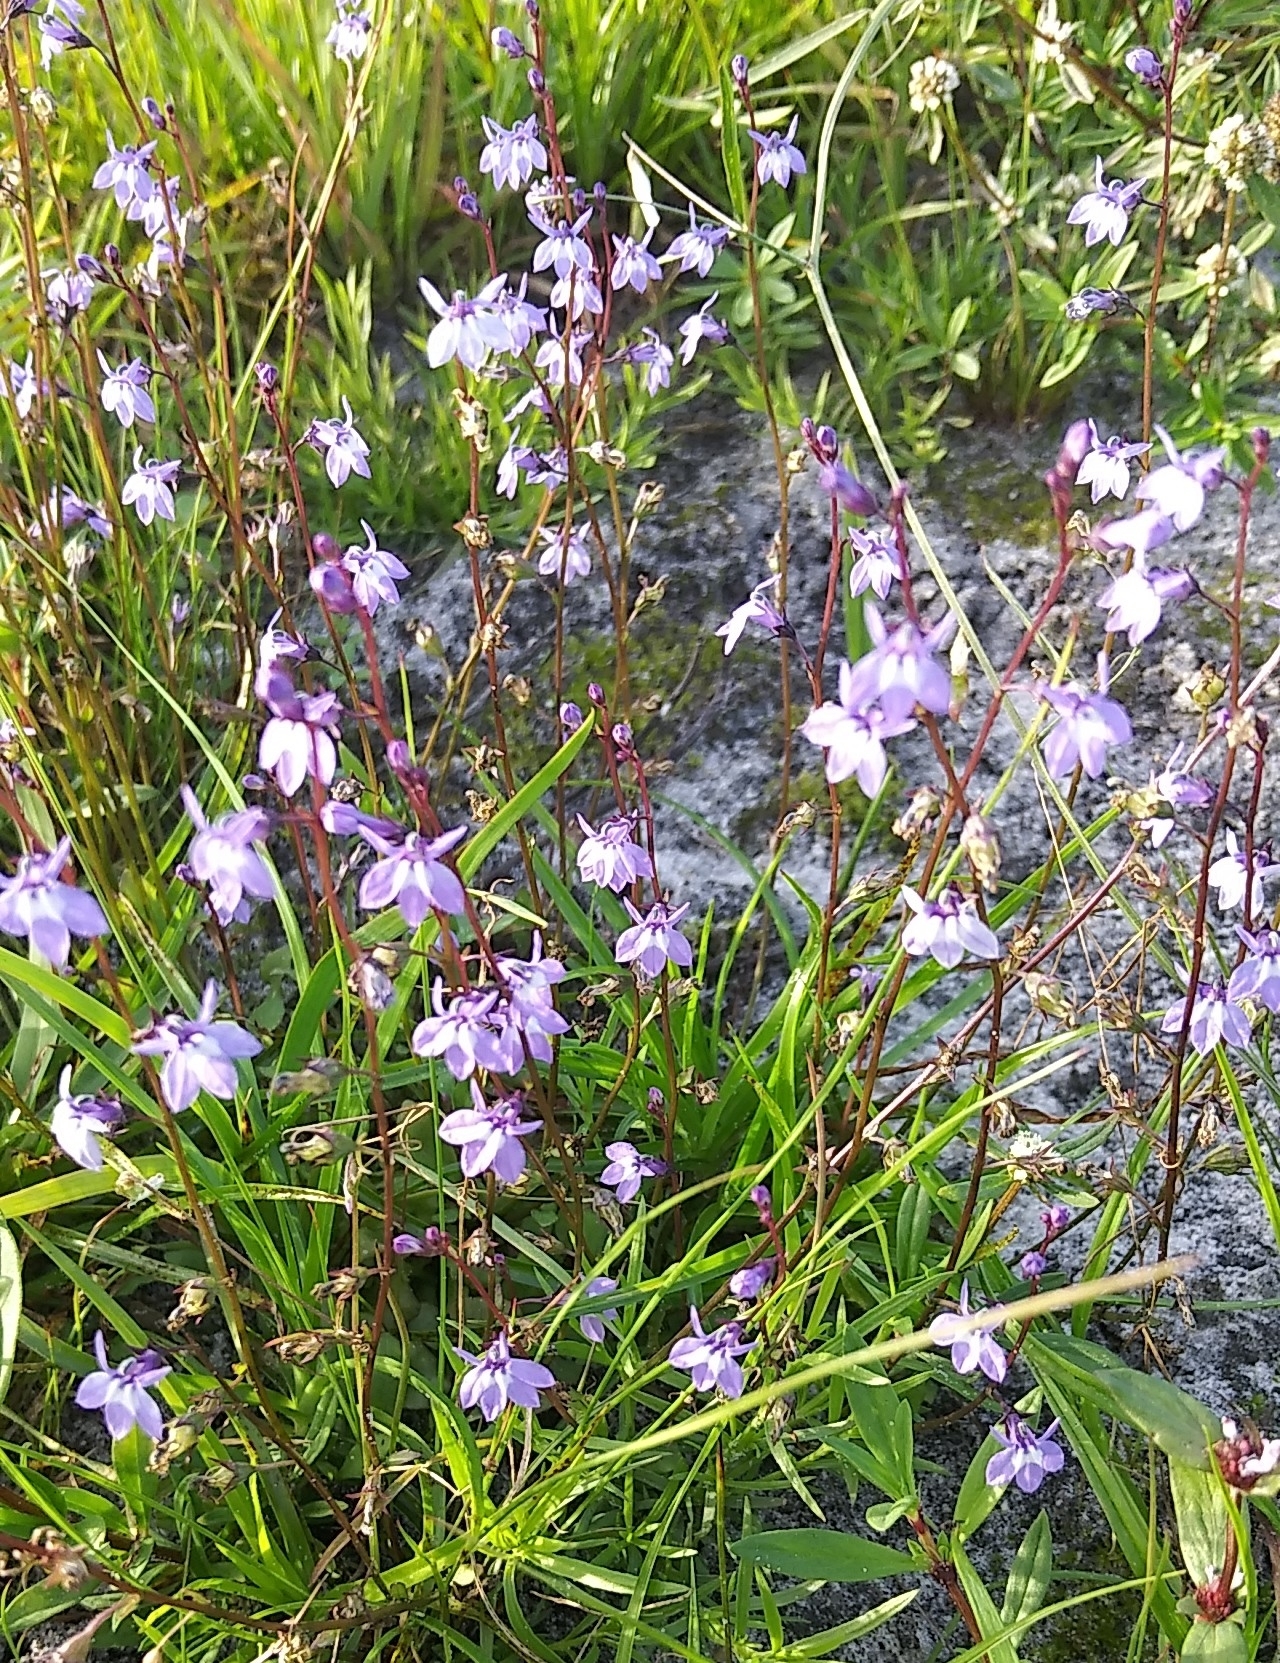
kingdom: Plantae
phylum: Tracheophyta
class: Magnoliopsida
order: Asterales
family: Campanulaceae
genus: Lobelia
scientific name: Lobelia feayana
